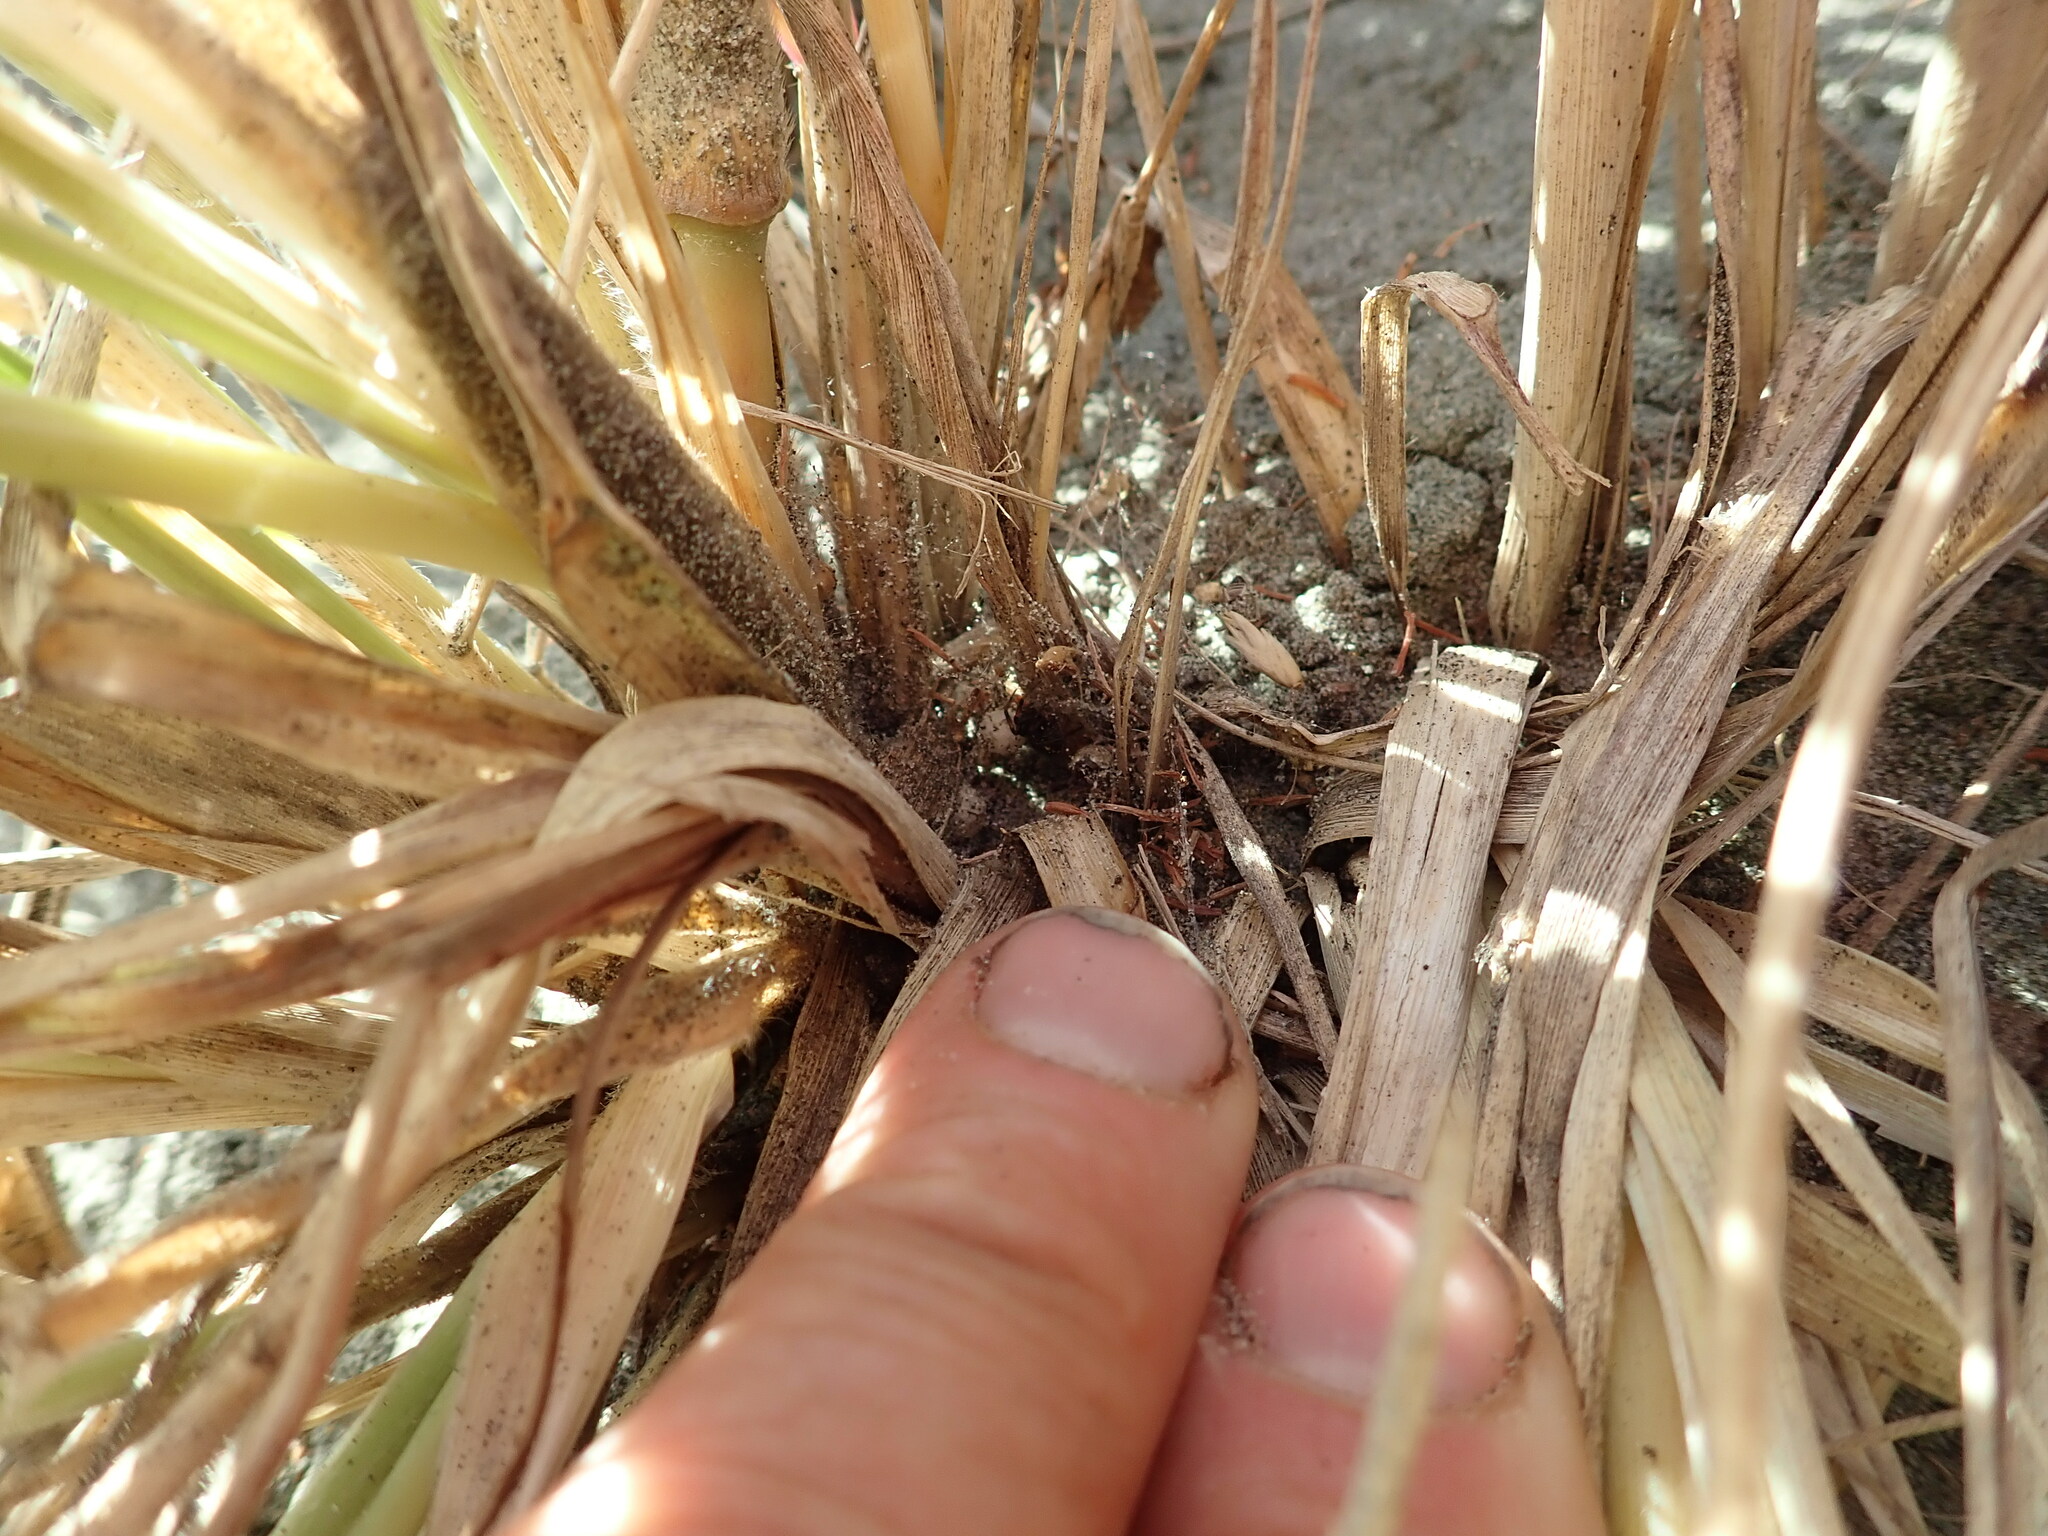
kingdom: Animalia
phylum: Arthropoda
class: Arachnida
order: Araneae
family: Theridiidae
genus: Steatoda
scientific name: Steatoda lepida
